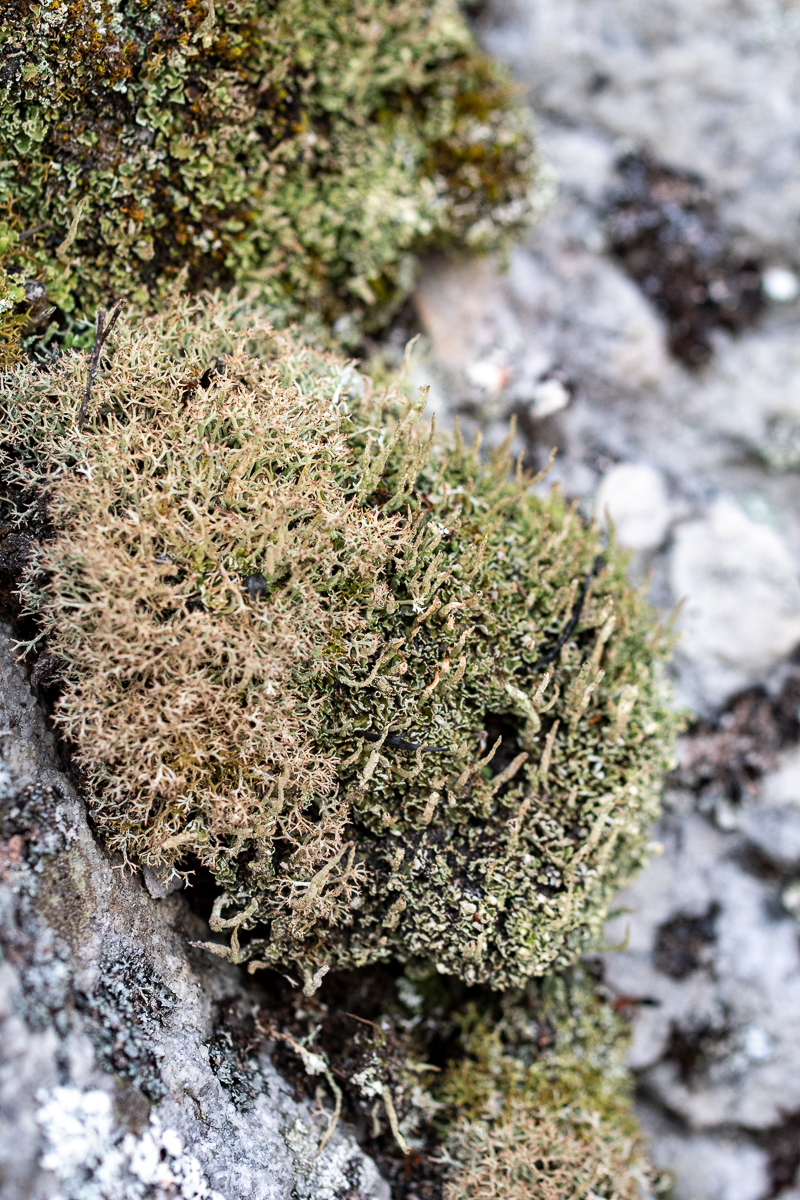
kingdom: Fungi
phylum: Ascomycota
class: Lecanoromycetes
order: Lecanorales
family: Cladoniaceae
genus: Cladonia
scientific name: Cladonia
